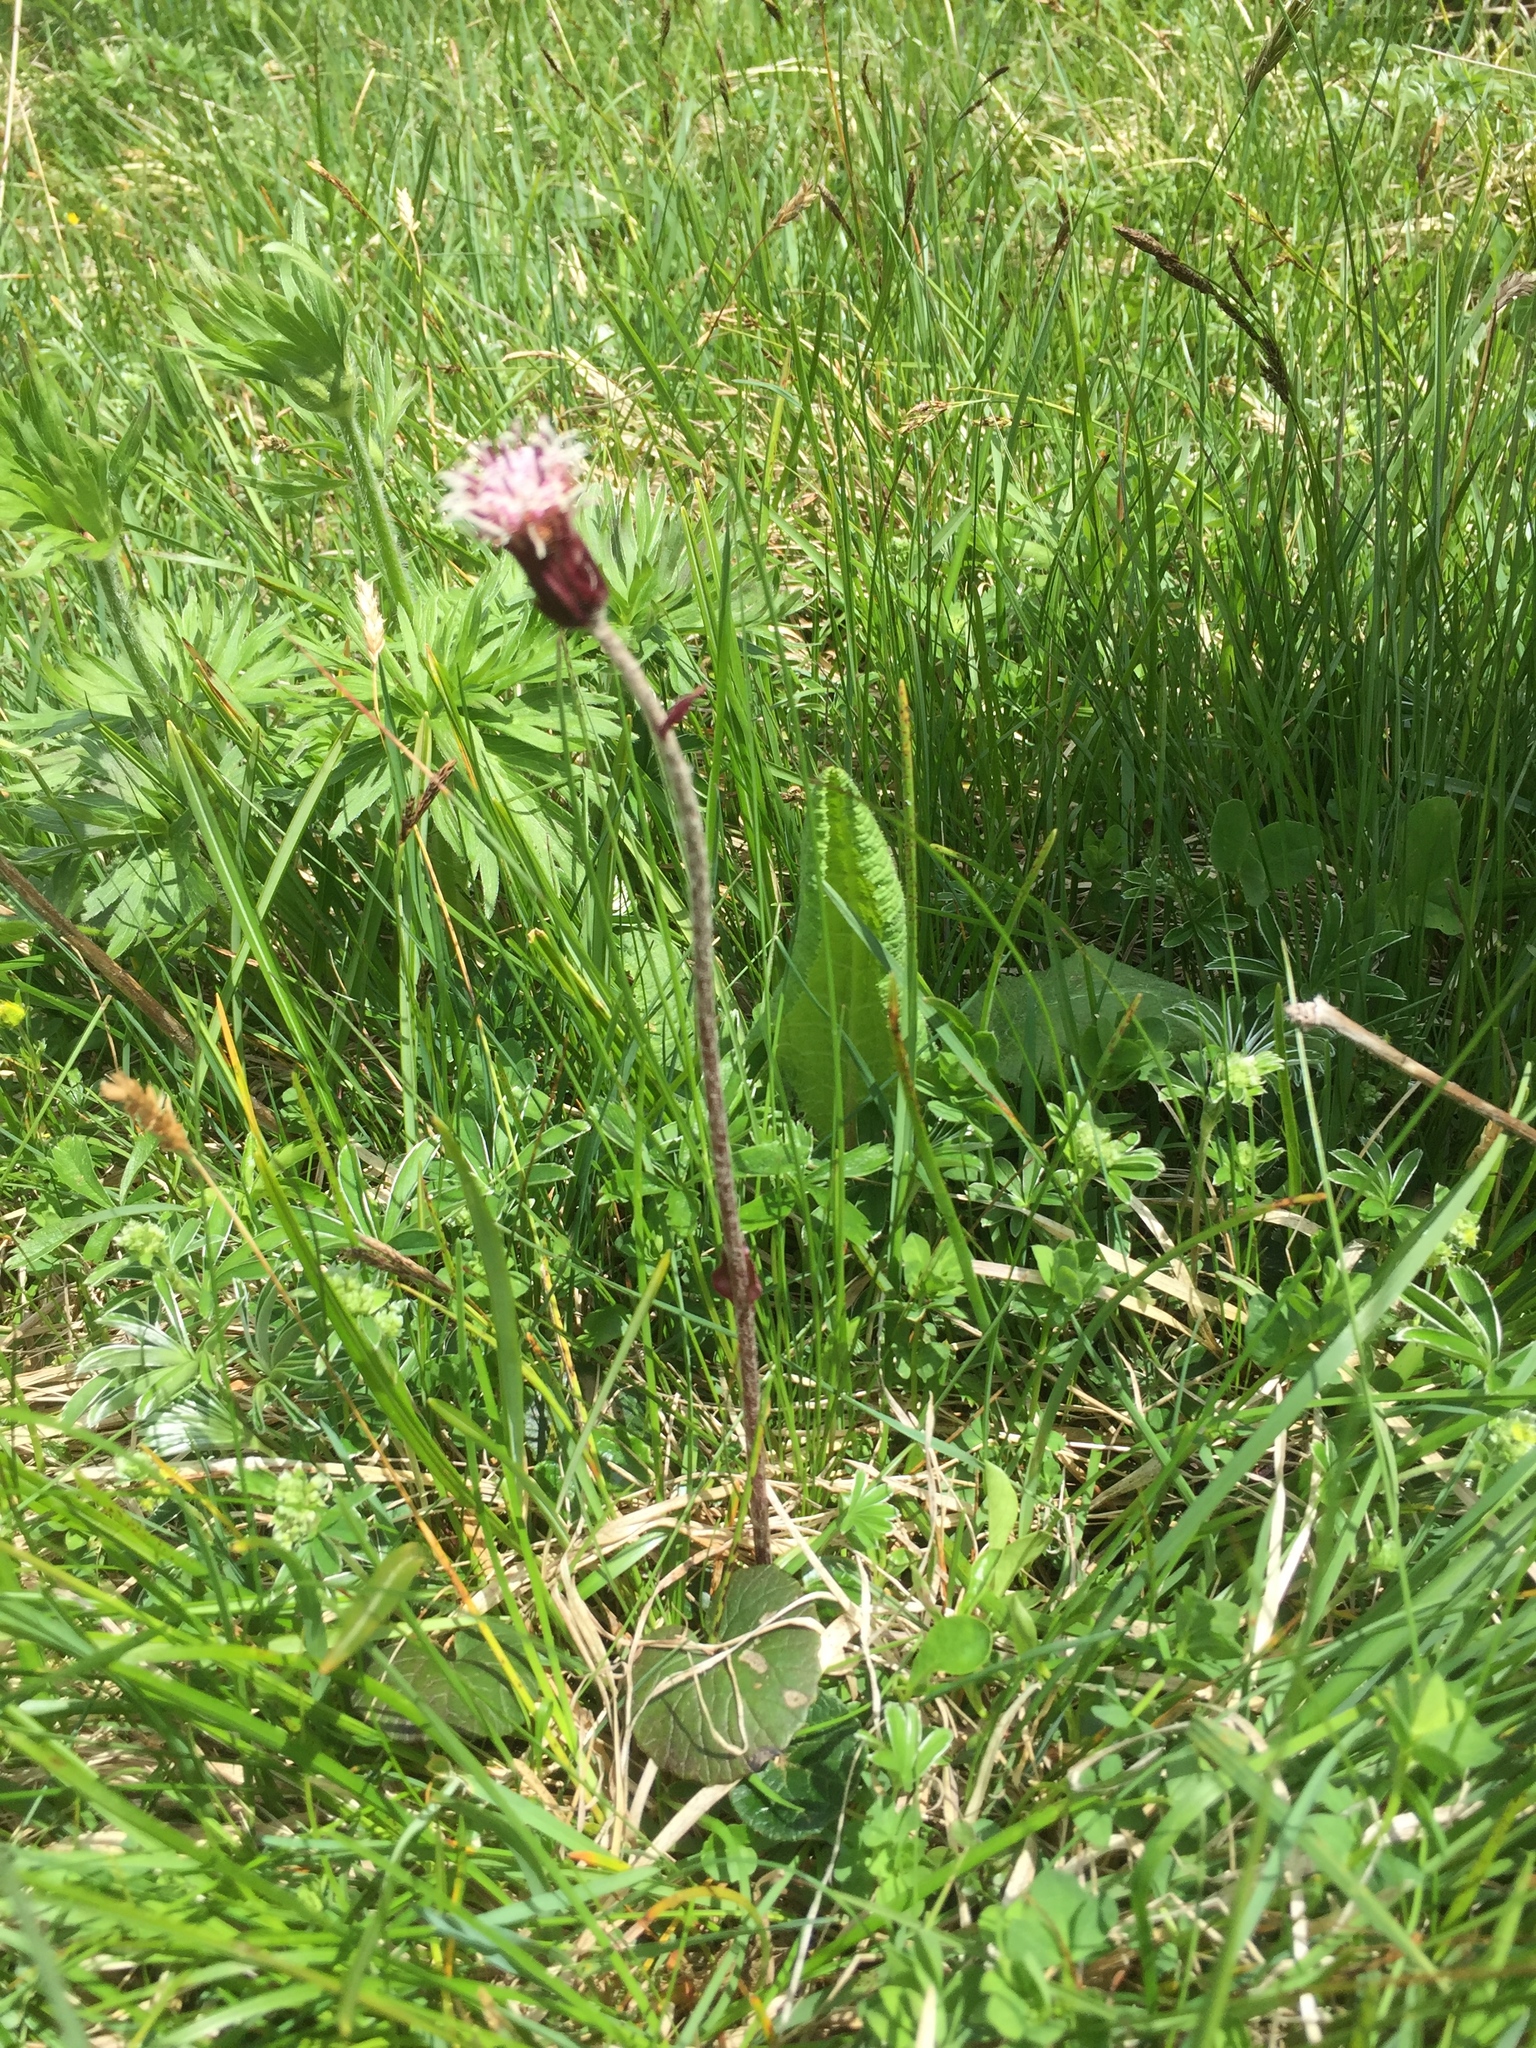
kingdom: Plantae
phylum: Tracheophyta
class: Magnoliopsida
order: Asterales
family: Asteraceae
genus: Homogyne
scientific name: Homogyne alpina
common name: Purple colt's-foot
